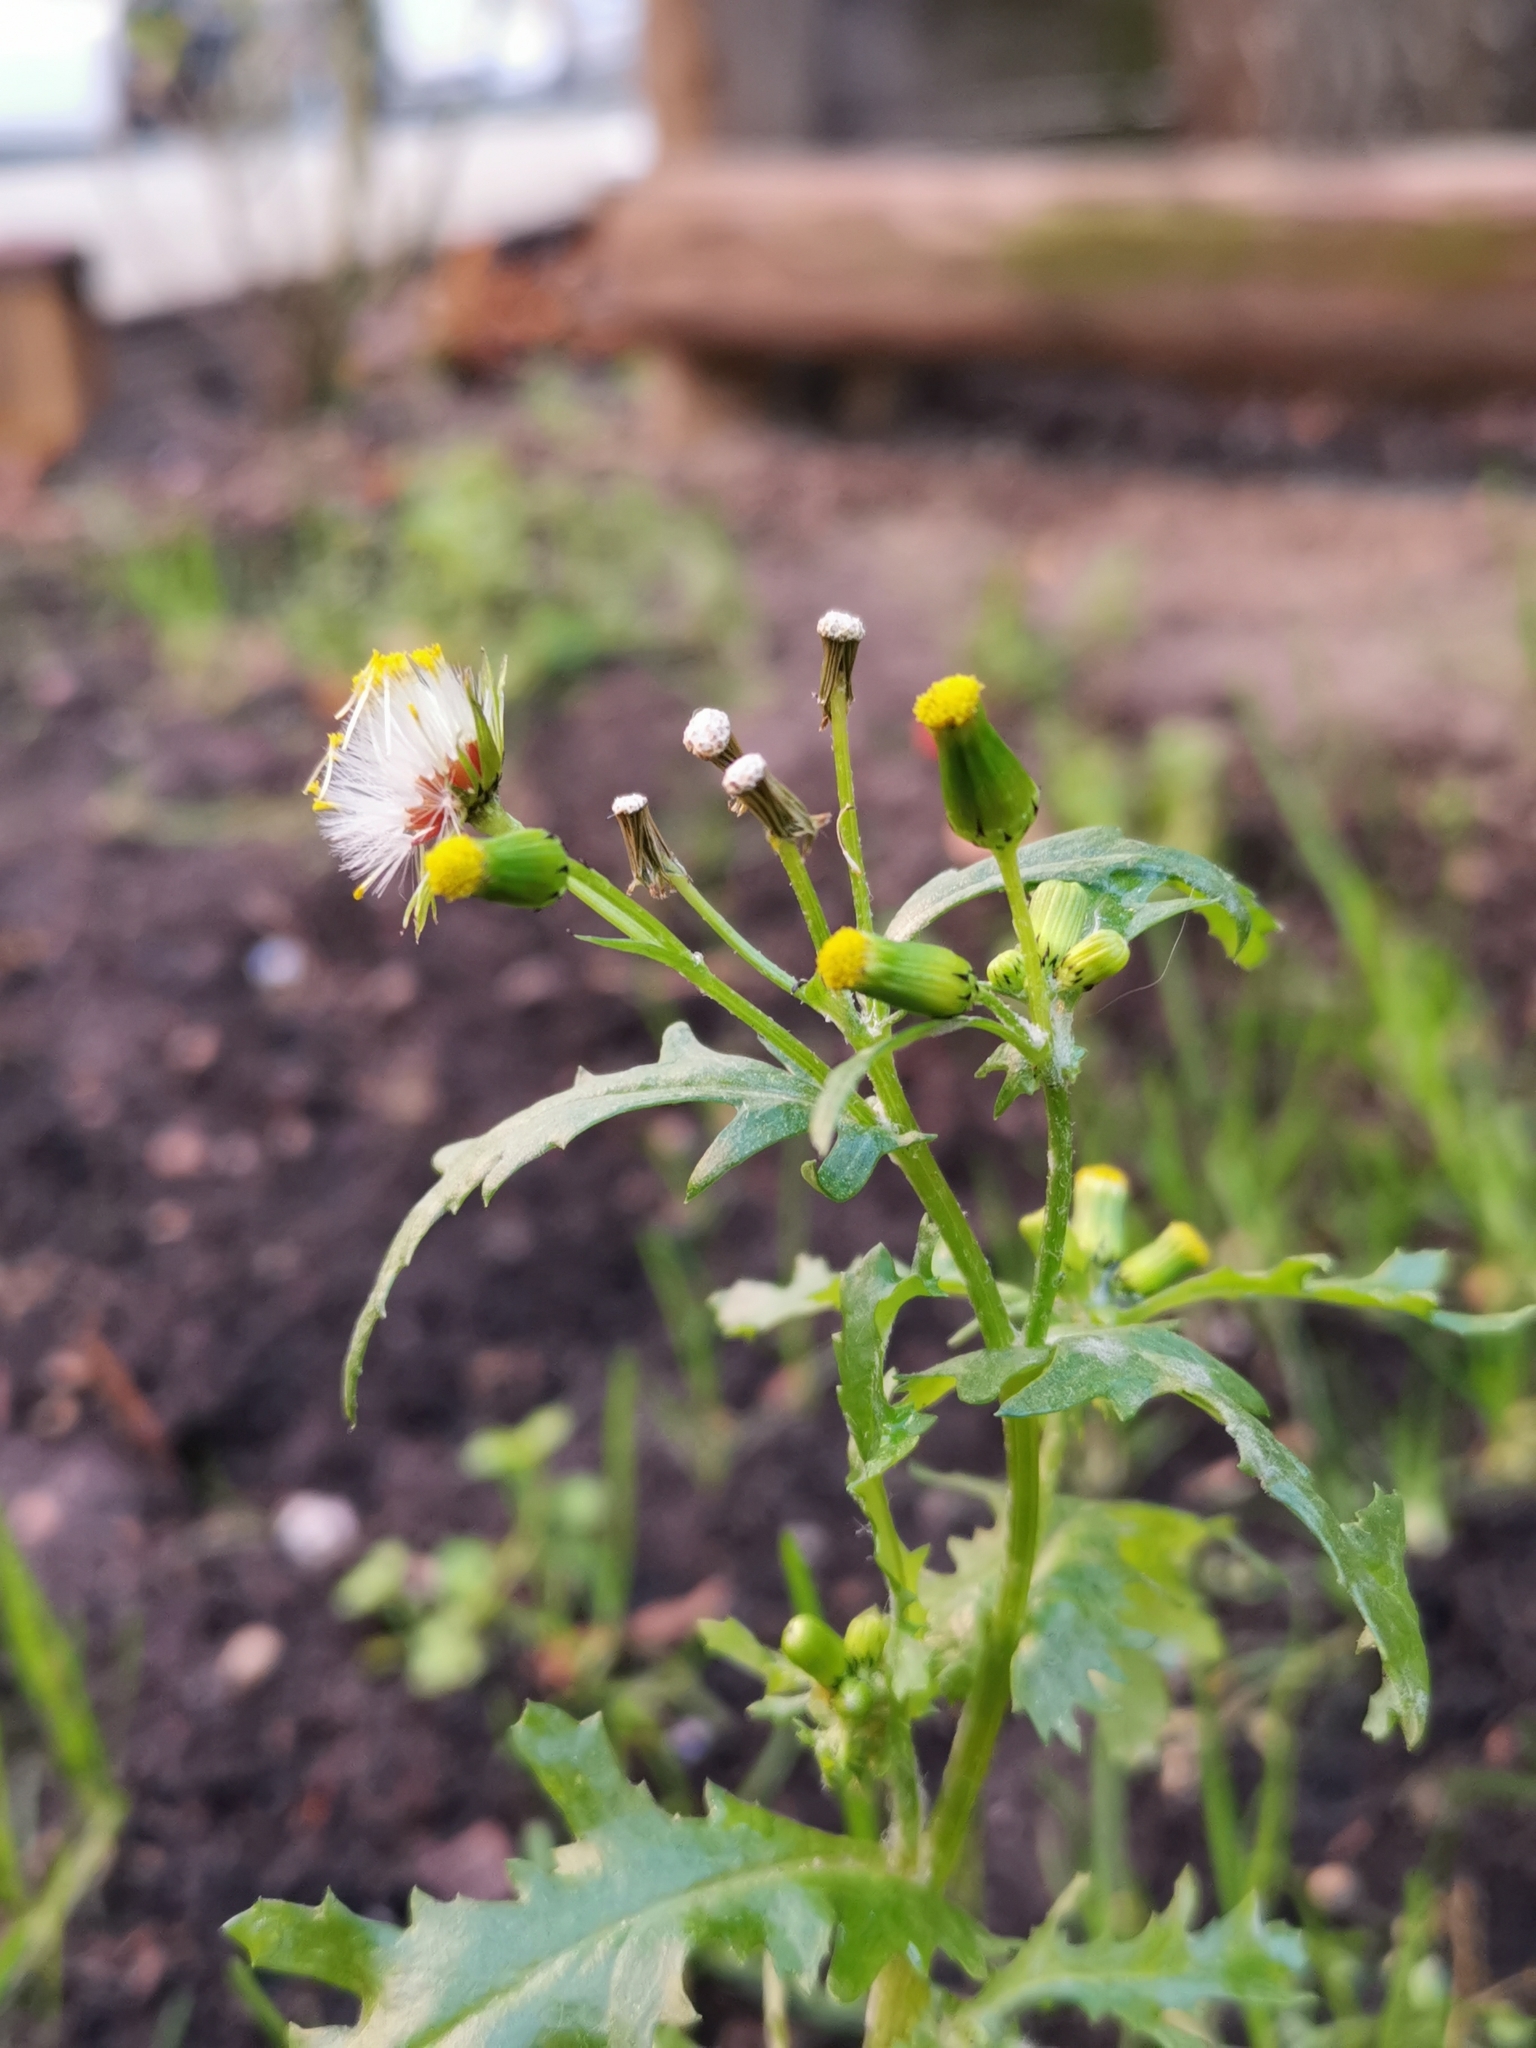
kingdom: Plantae
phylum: Tracheophyta
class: Magnoliopsida
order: Asterales
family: Asteraceae
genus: Senecio
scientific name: Senecio vulgaris
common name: Old-man-in-the-spring
